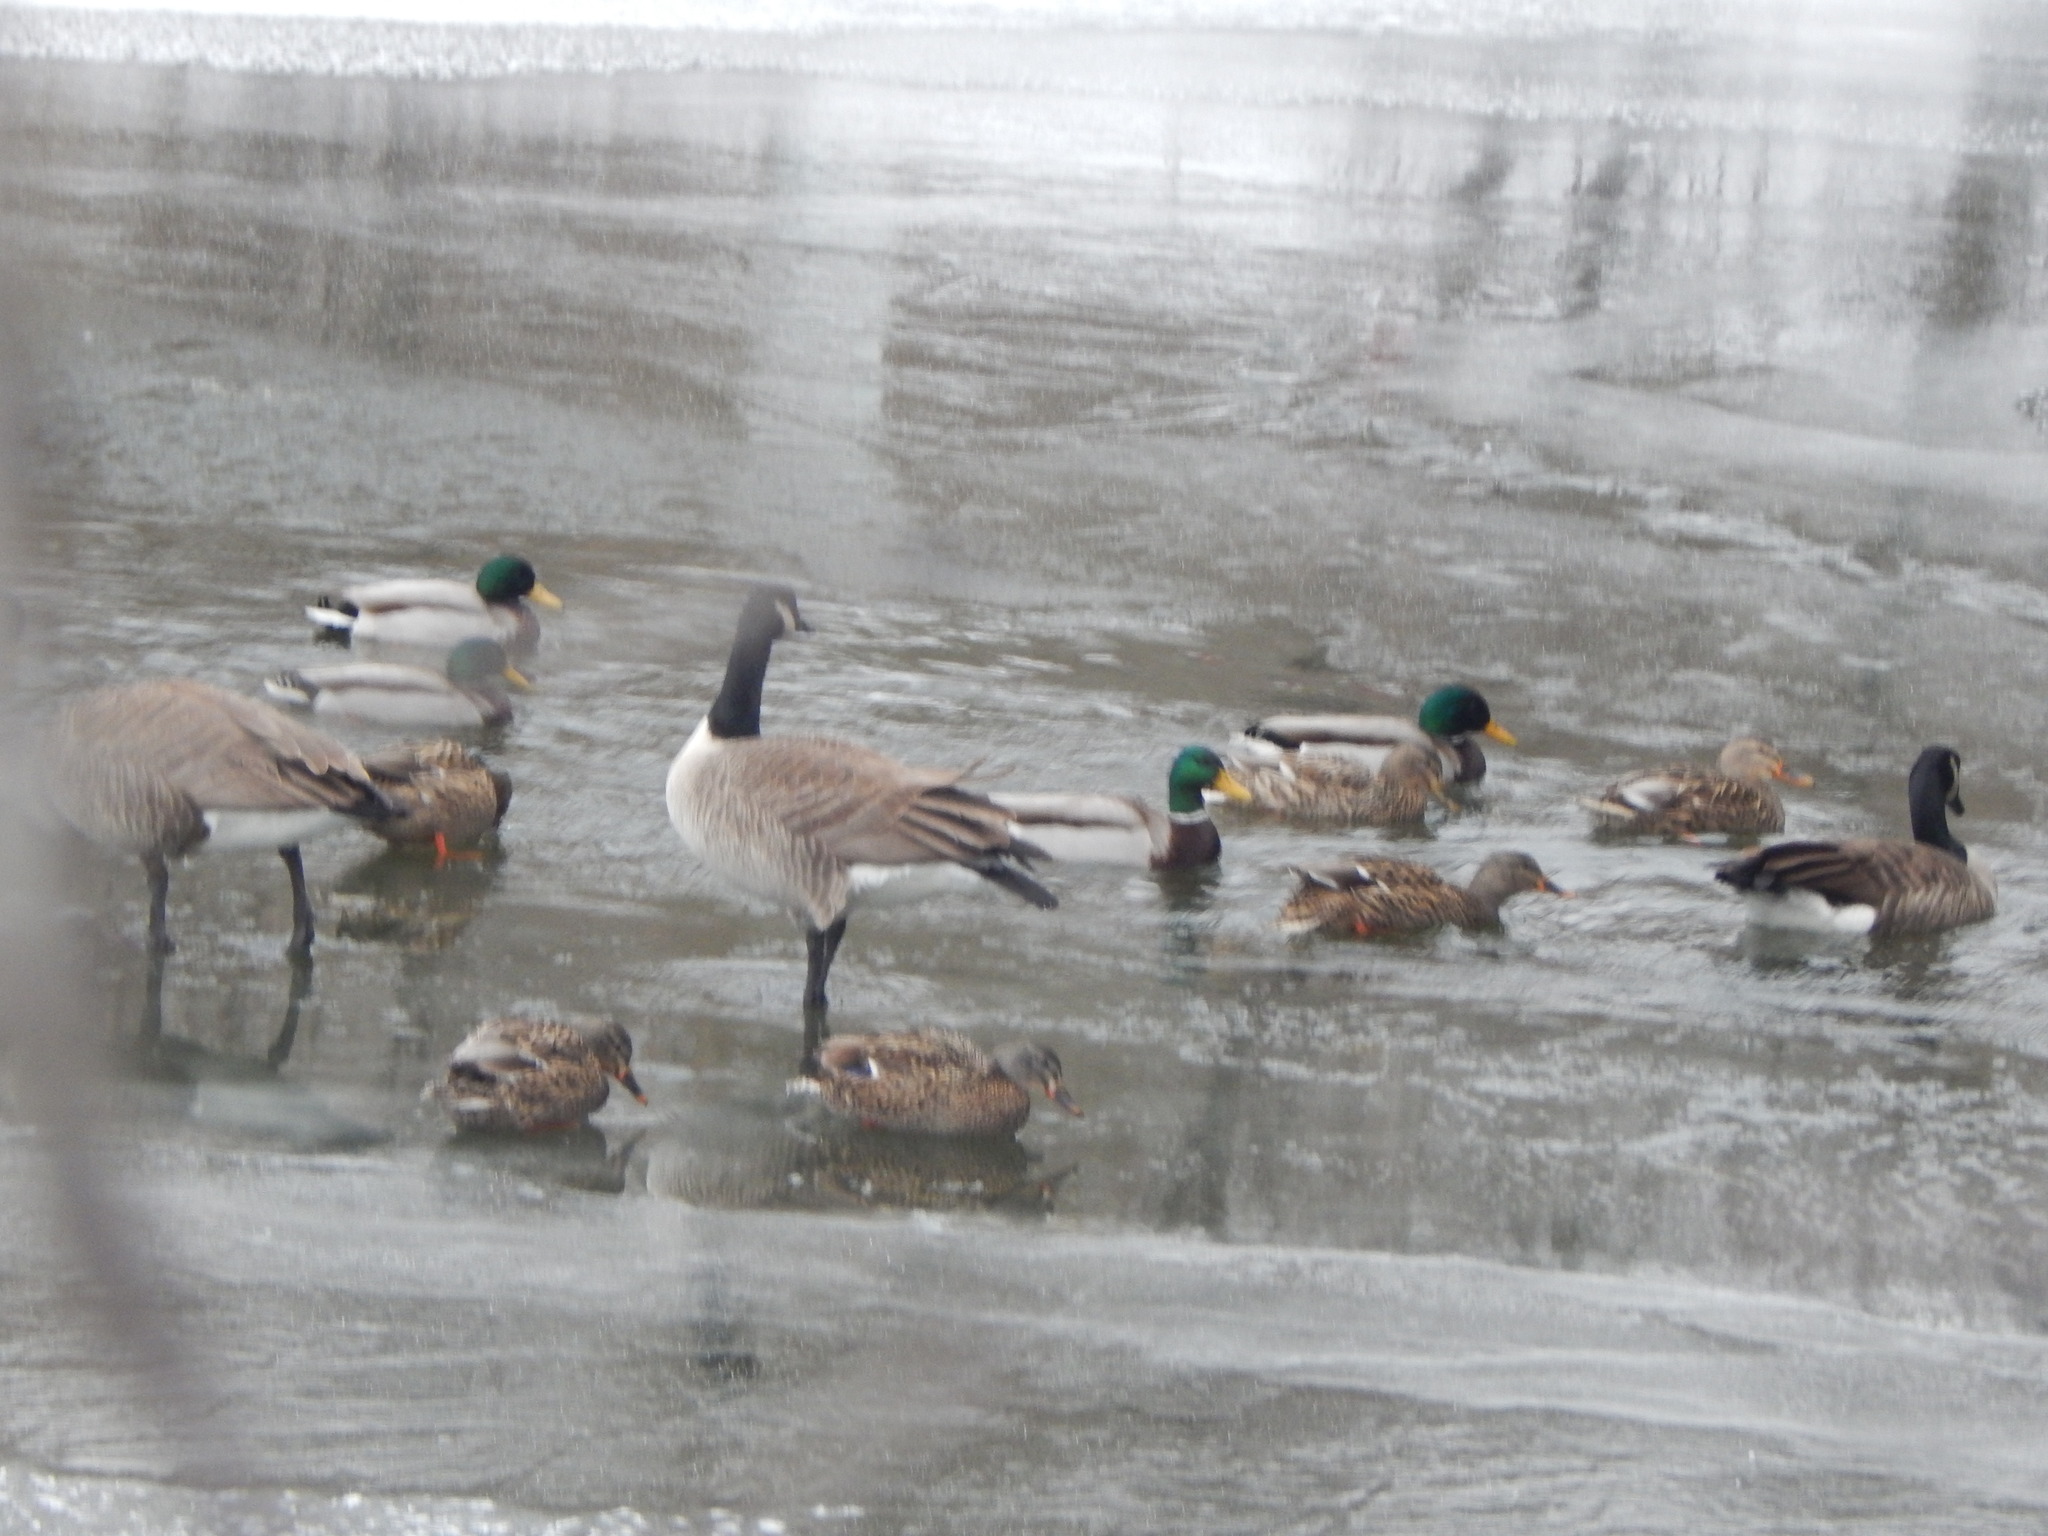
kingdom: Animalia
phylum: Chordata
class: Aves
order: Anseriformes
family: Anatidae
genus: Branta
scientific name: Branta canadensis
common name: Canada goose
